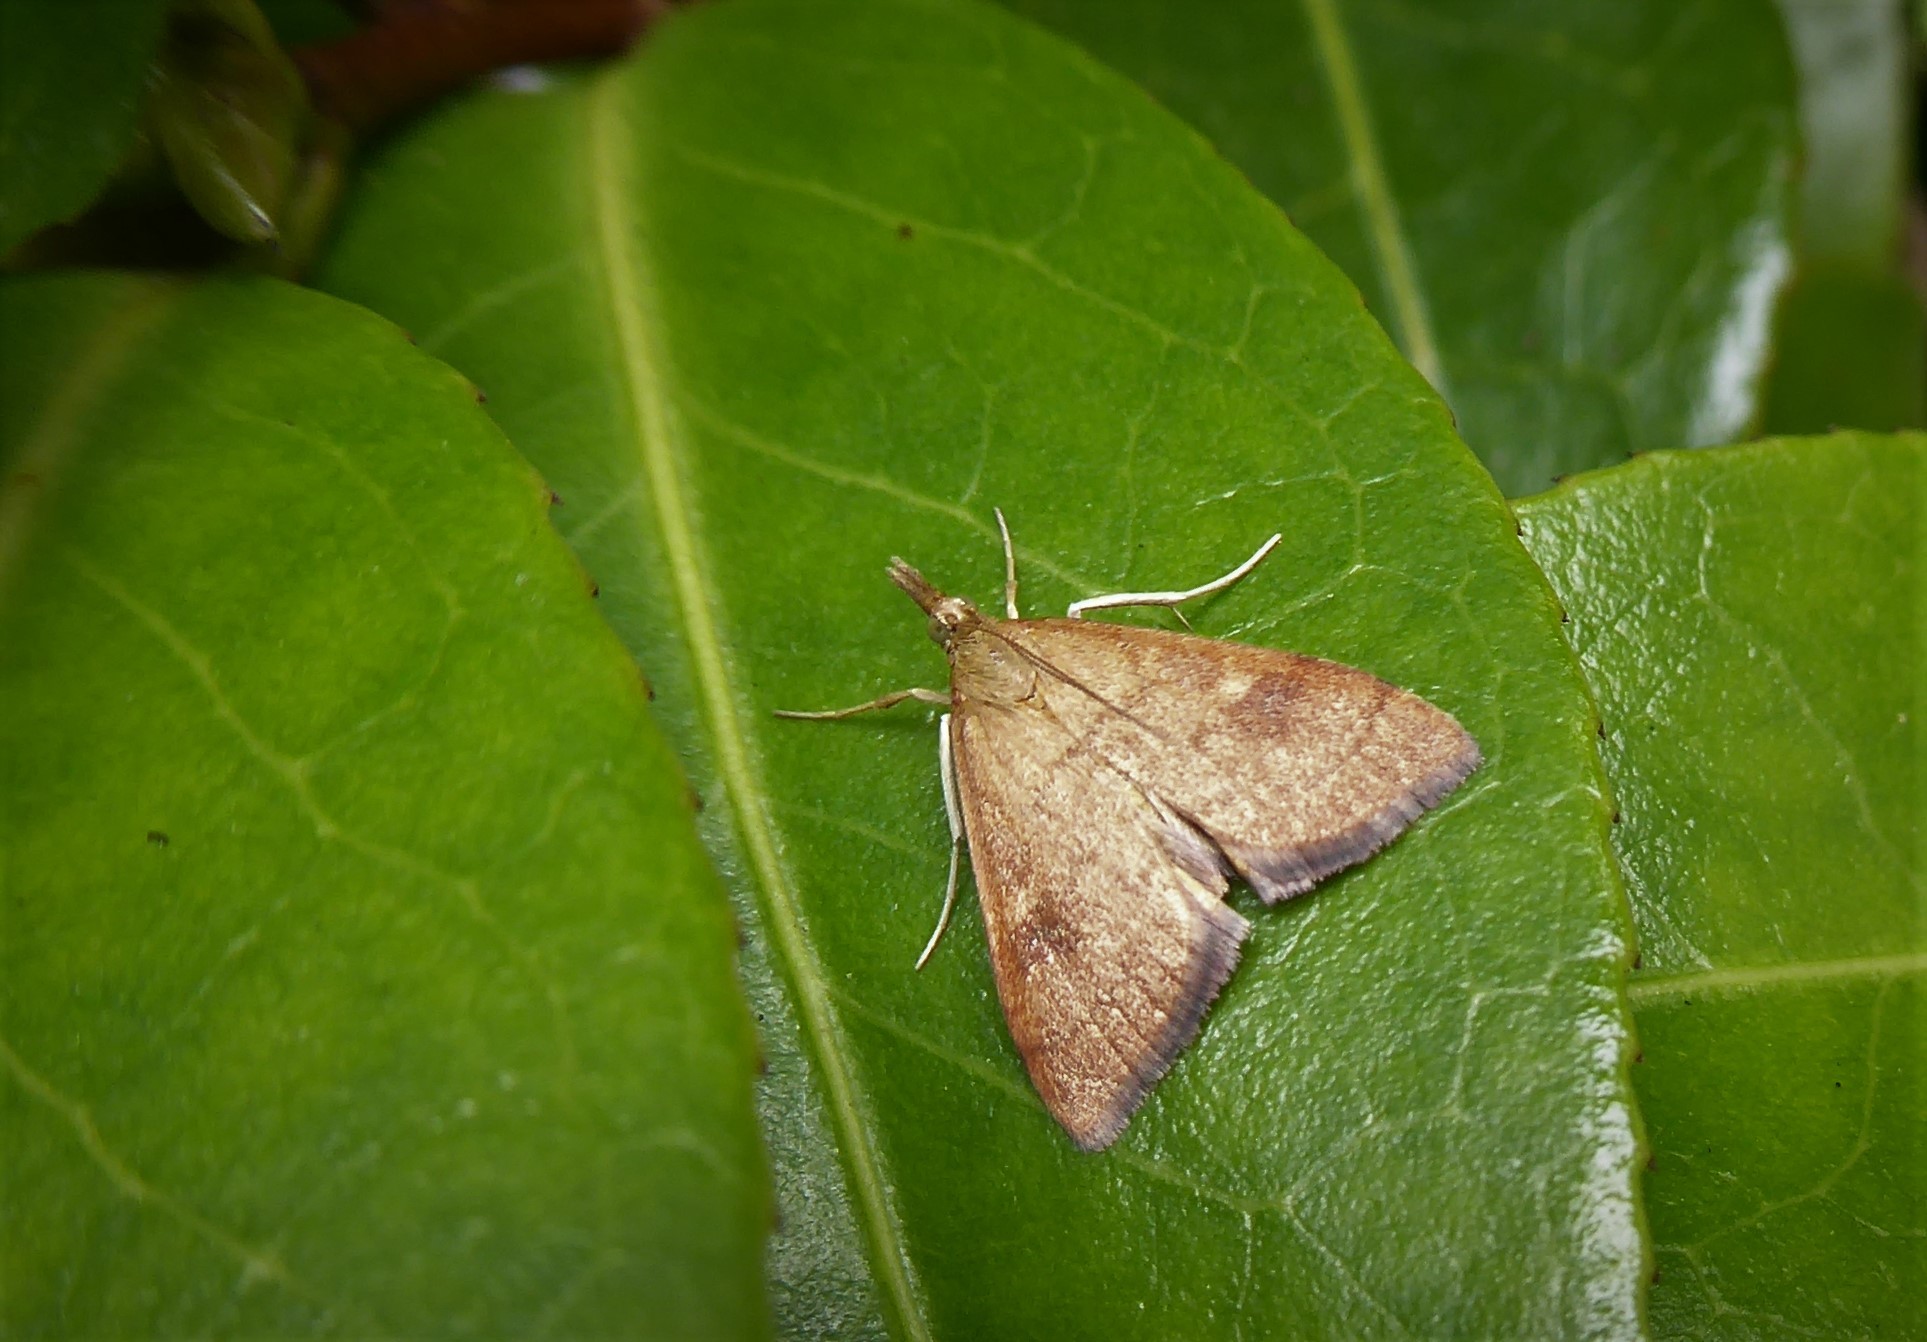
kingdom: Animalia
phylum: Arthropoda
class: Insecta
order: Lepidoptera
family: Crambidae
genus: Udea
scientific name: Udea Mnesictena flavidalis
